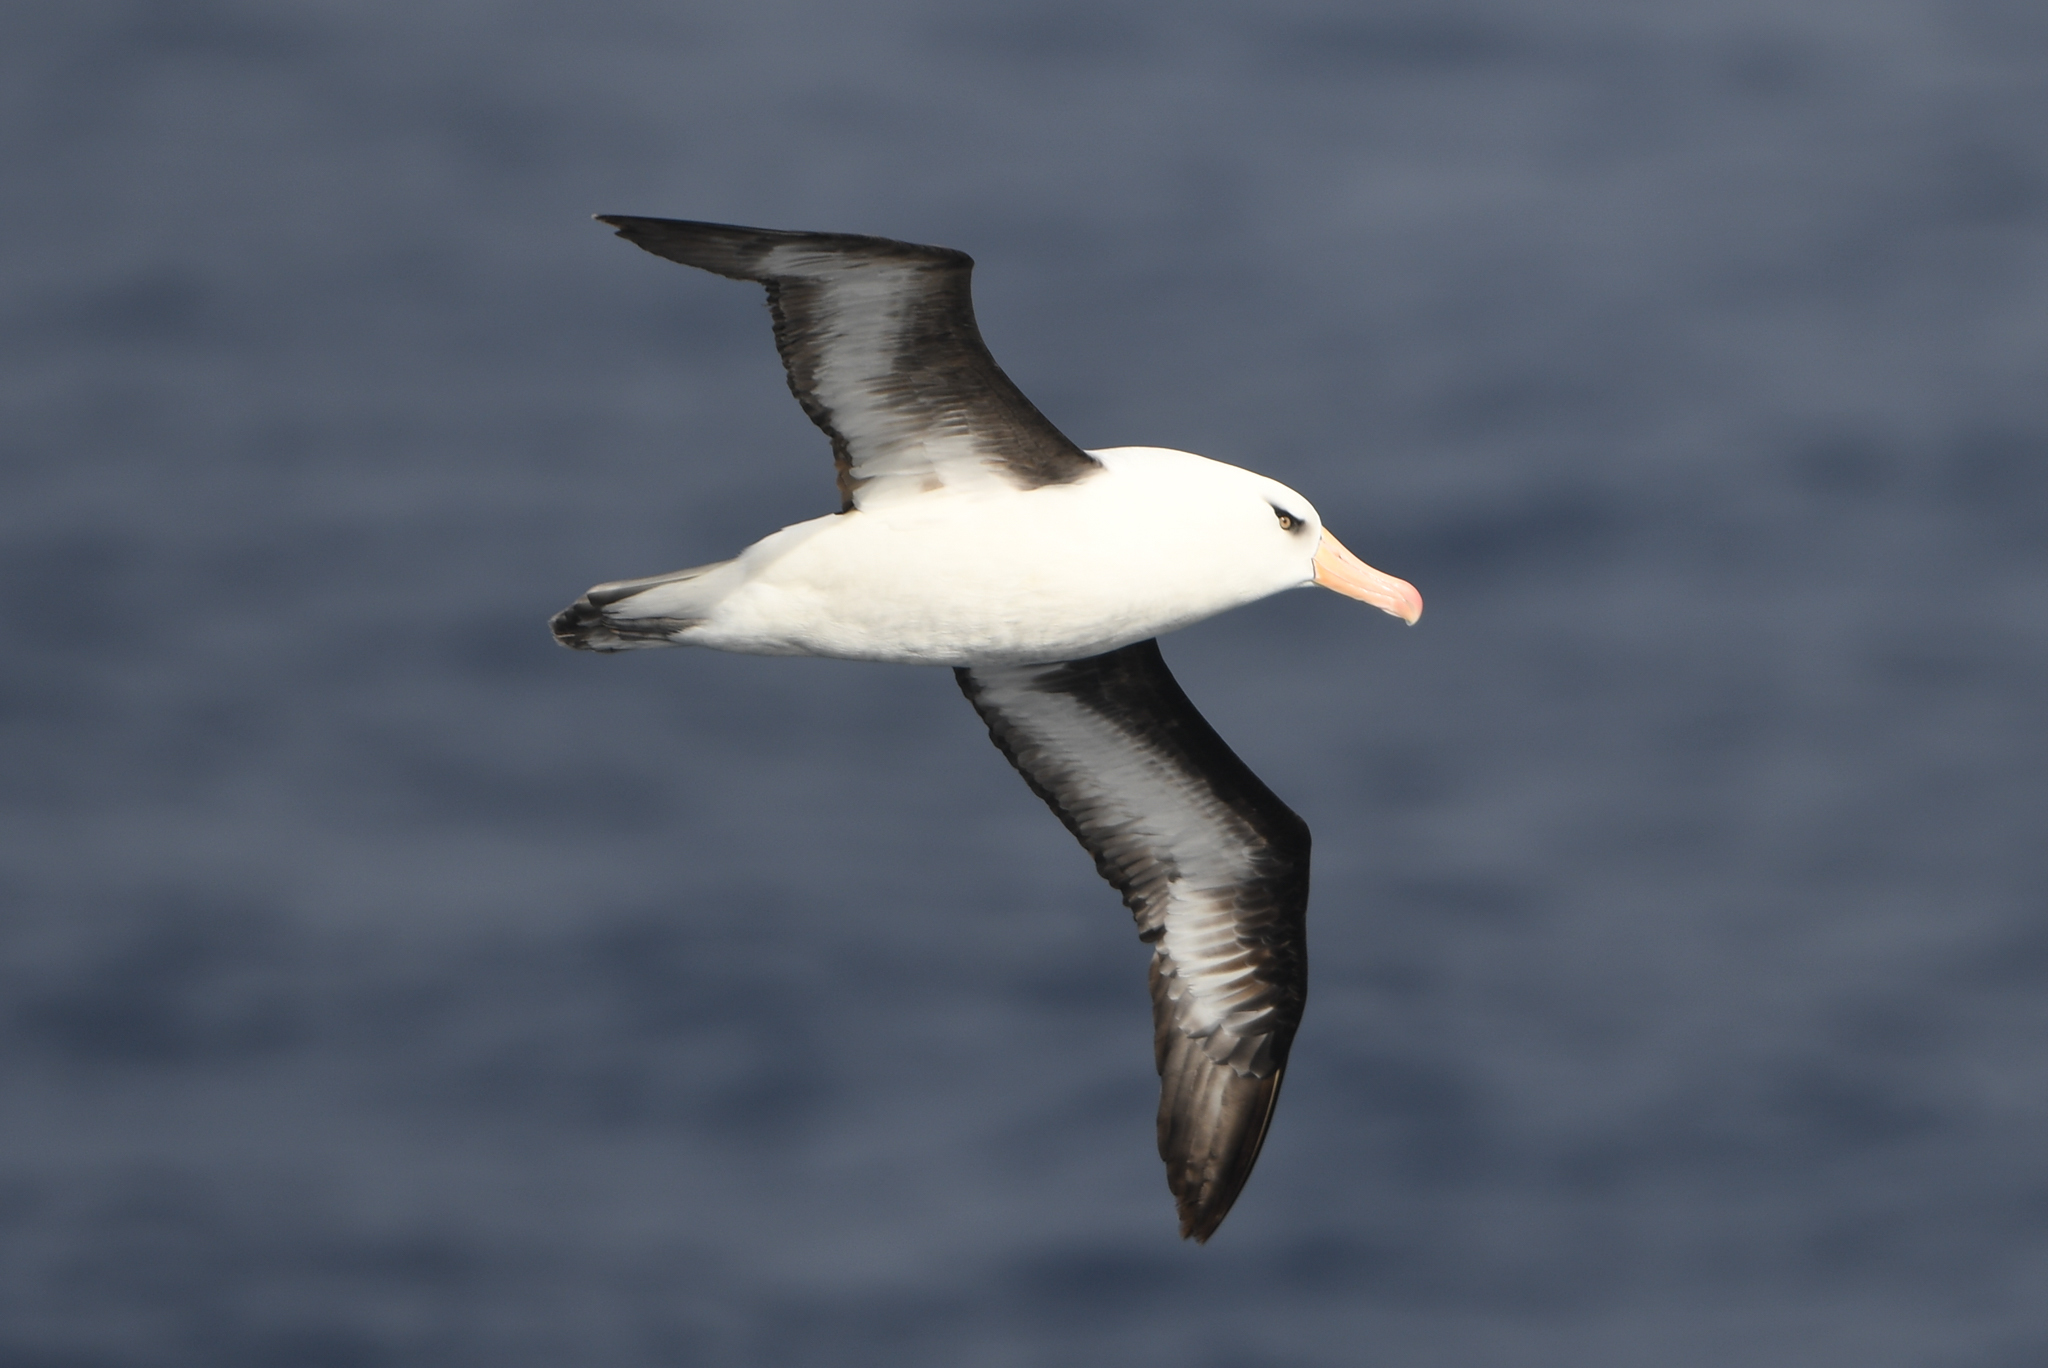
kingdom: Animalia
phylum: Chordata
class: Aves
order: Procellariiformes
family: Diomedeidae
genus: Thalassarche
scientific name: Thalassarche impavida
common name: Campbell albatross
